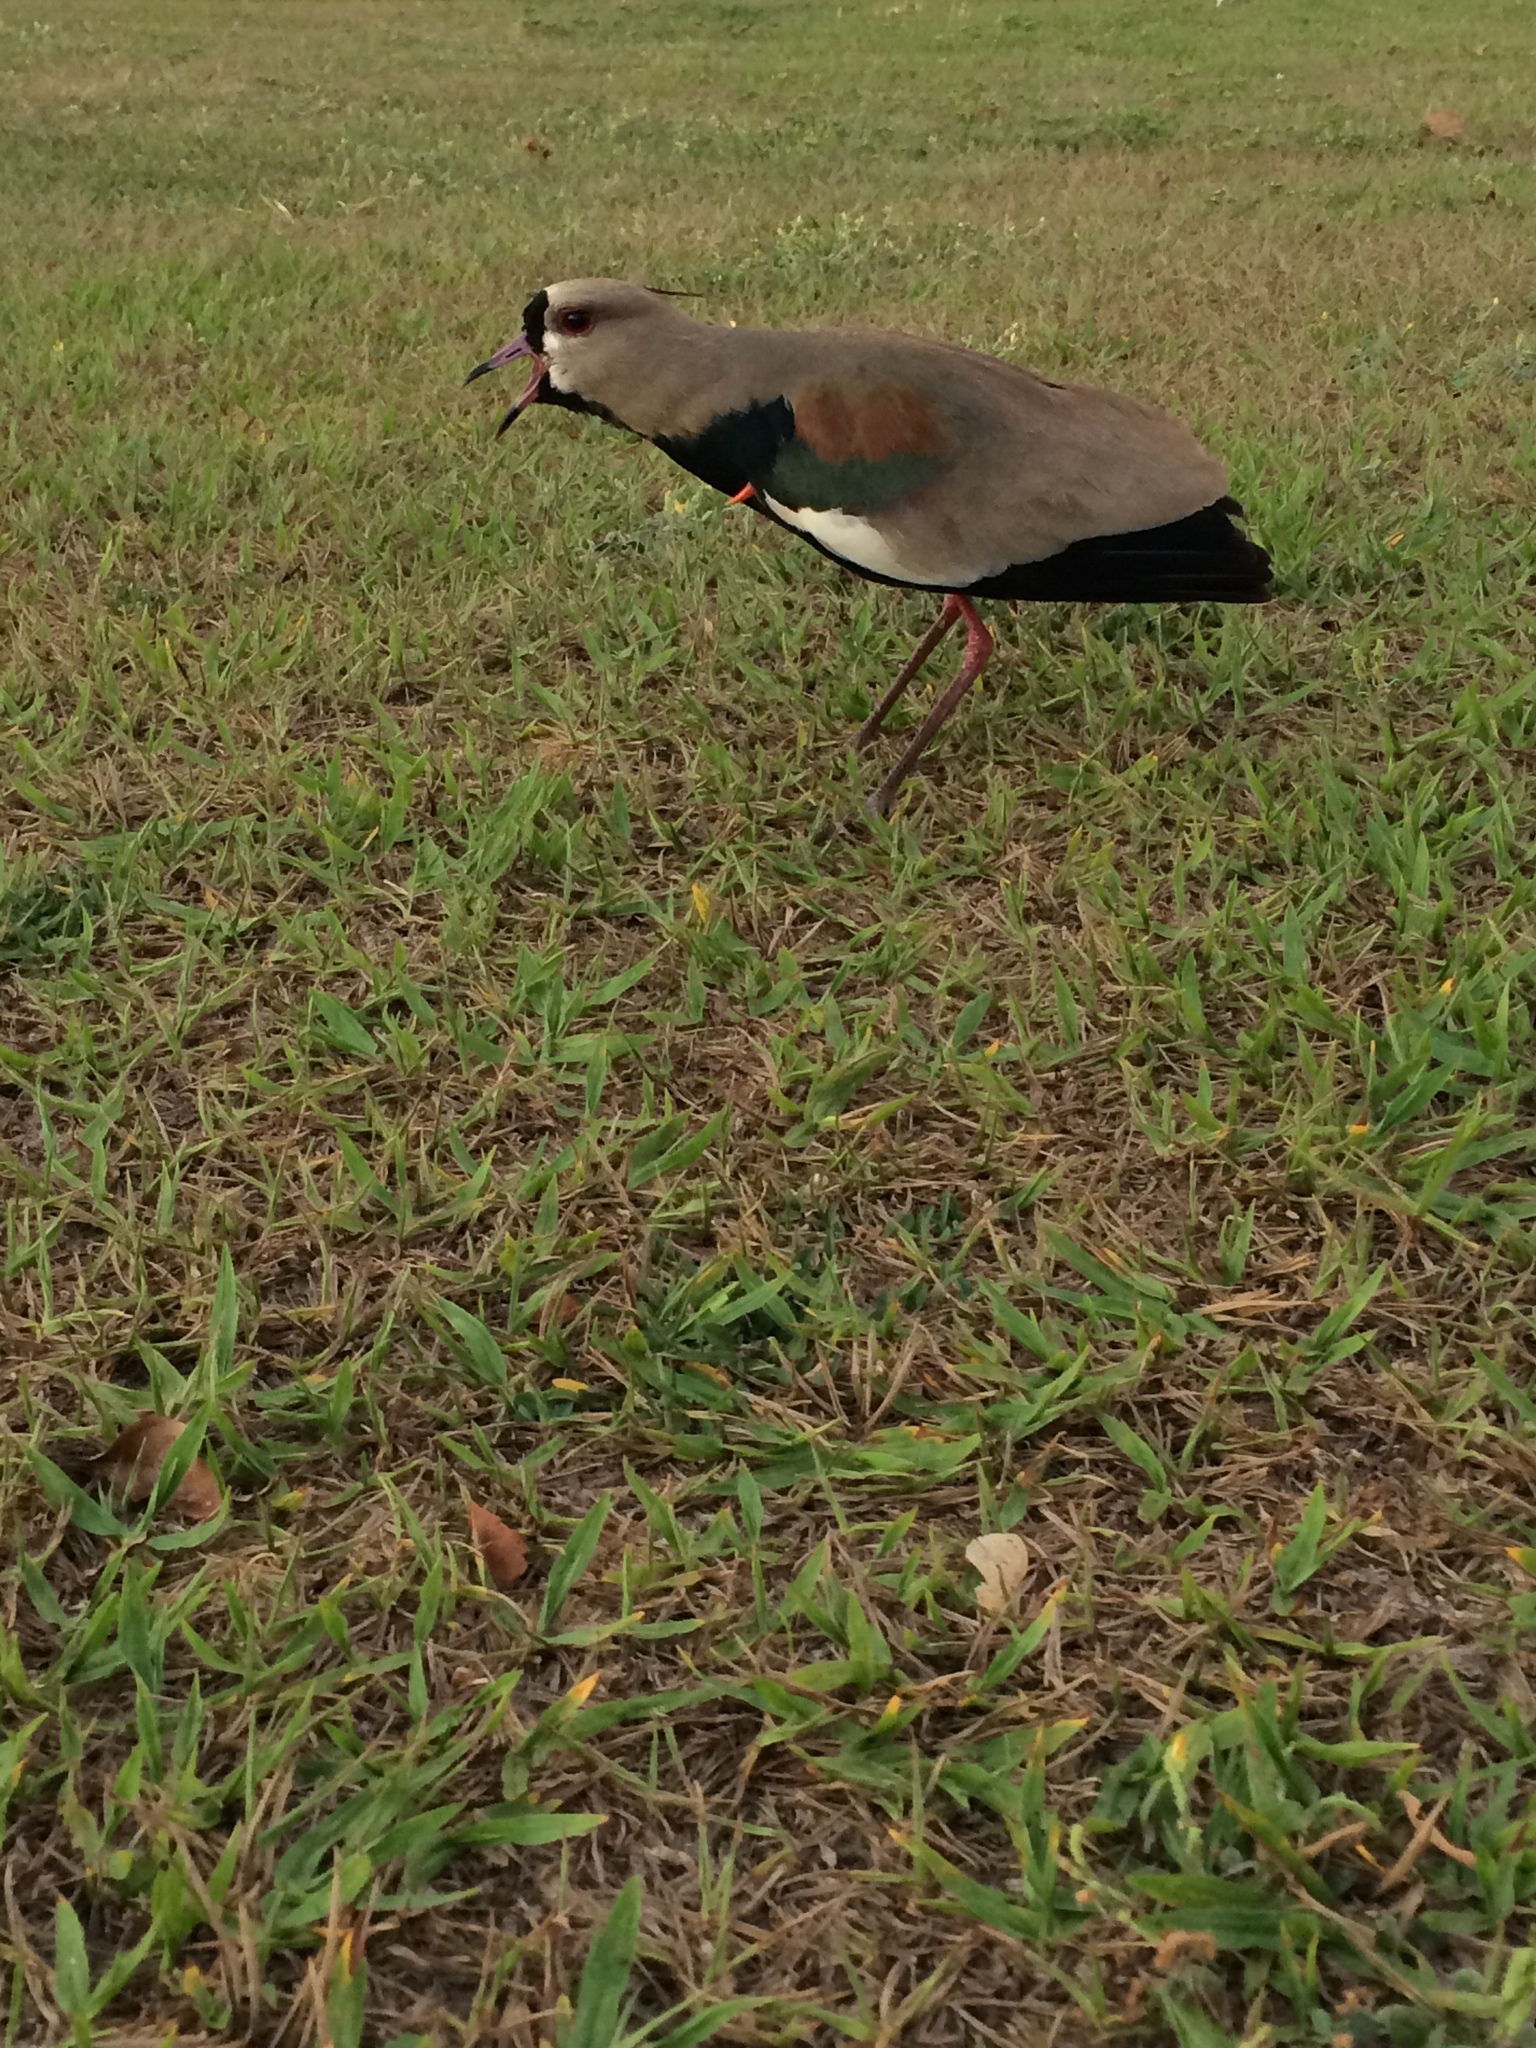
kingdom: Animalia
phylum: Chordata
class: Aves
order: Charadriiformes
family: Charadriidae
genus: Vanellus
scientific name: Vanellus chilensis
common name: Southern lapwing
